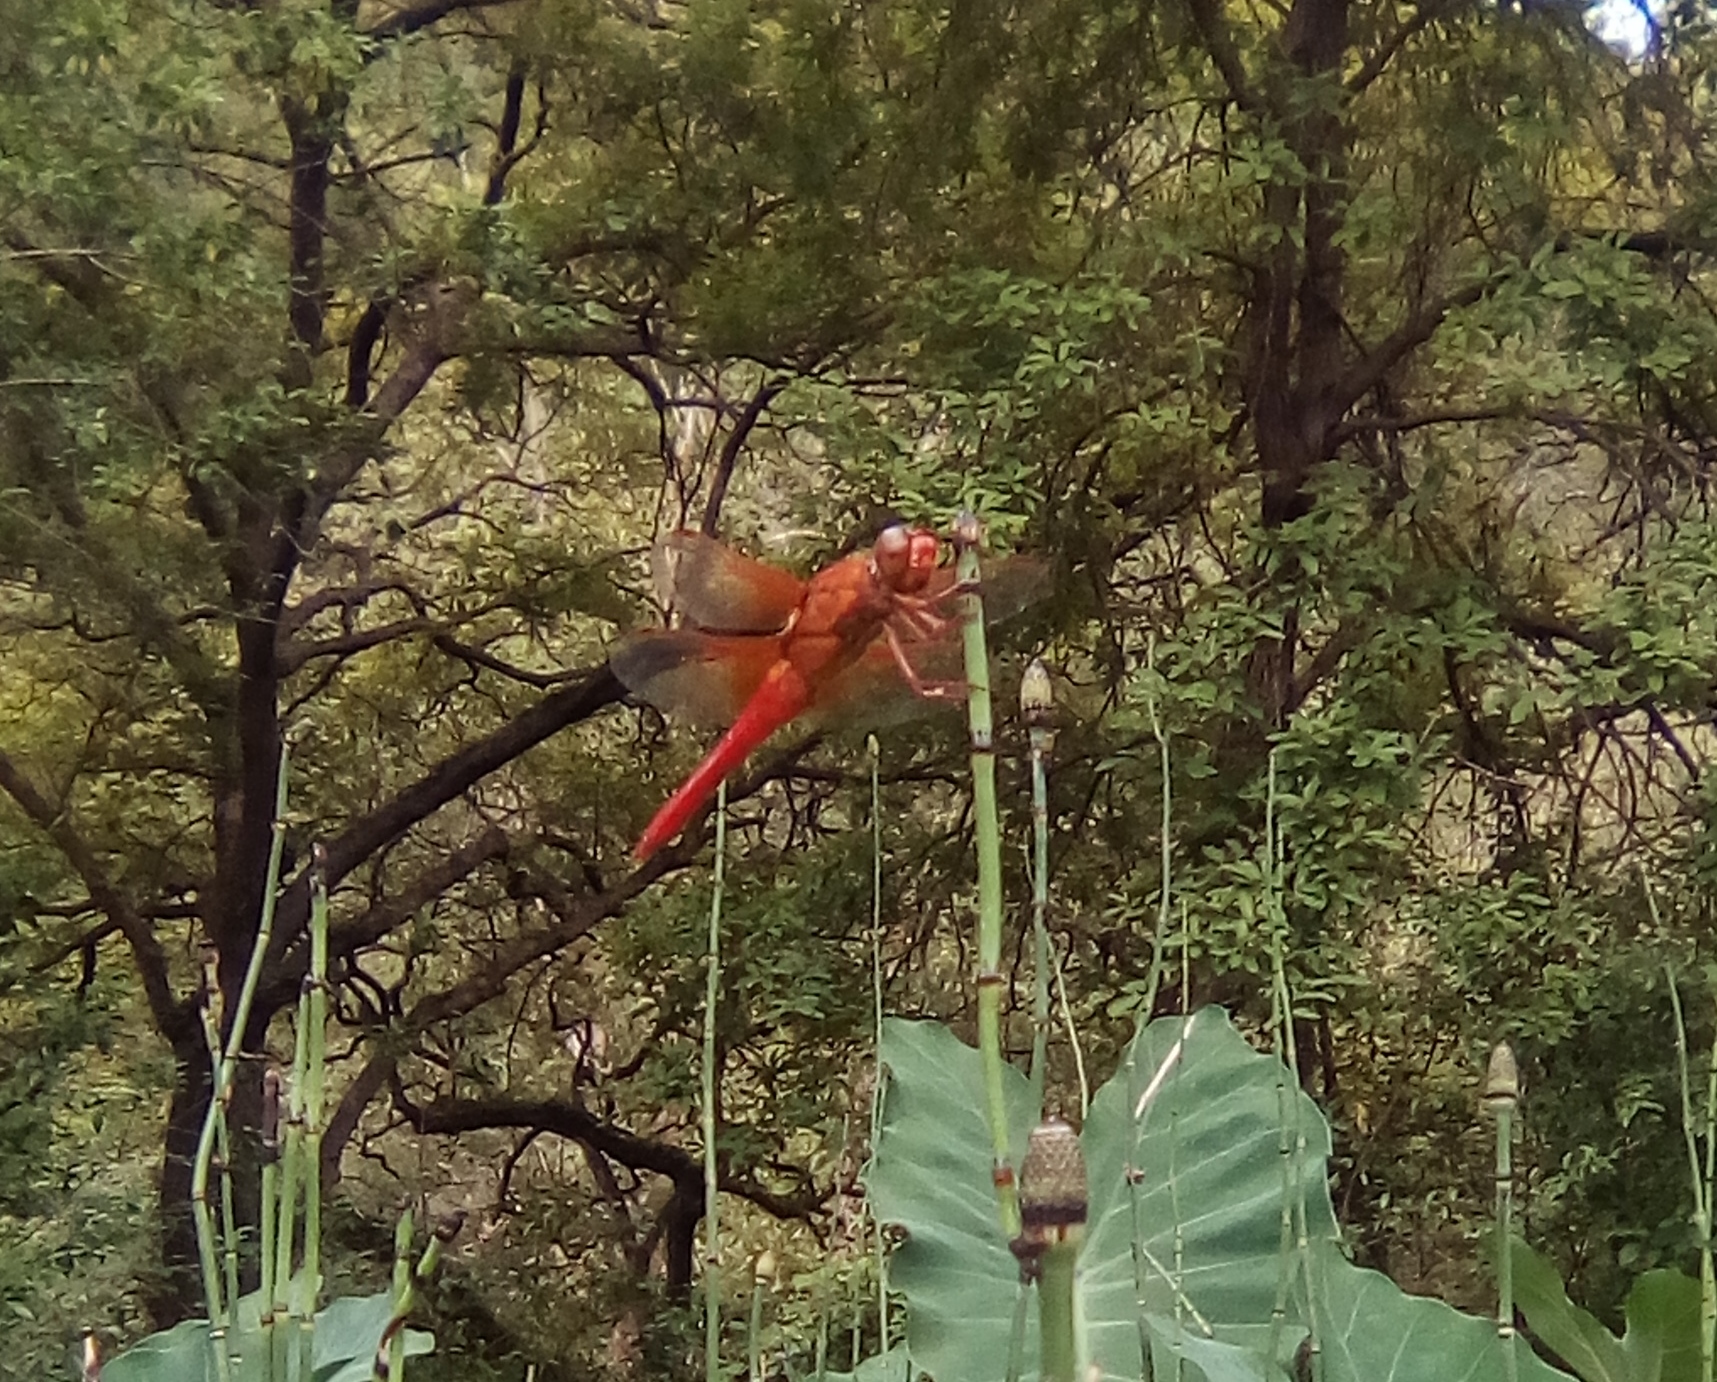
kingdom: Animalia
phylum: Arthropoda
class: Insecta
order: Odonata
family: Libellulidae
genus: Libellula
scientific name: Libellula croceipennis
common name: Neon skimmer
